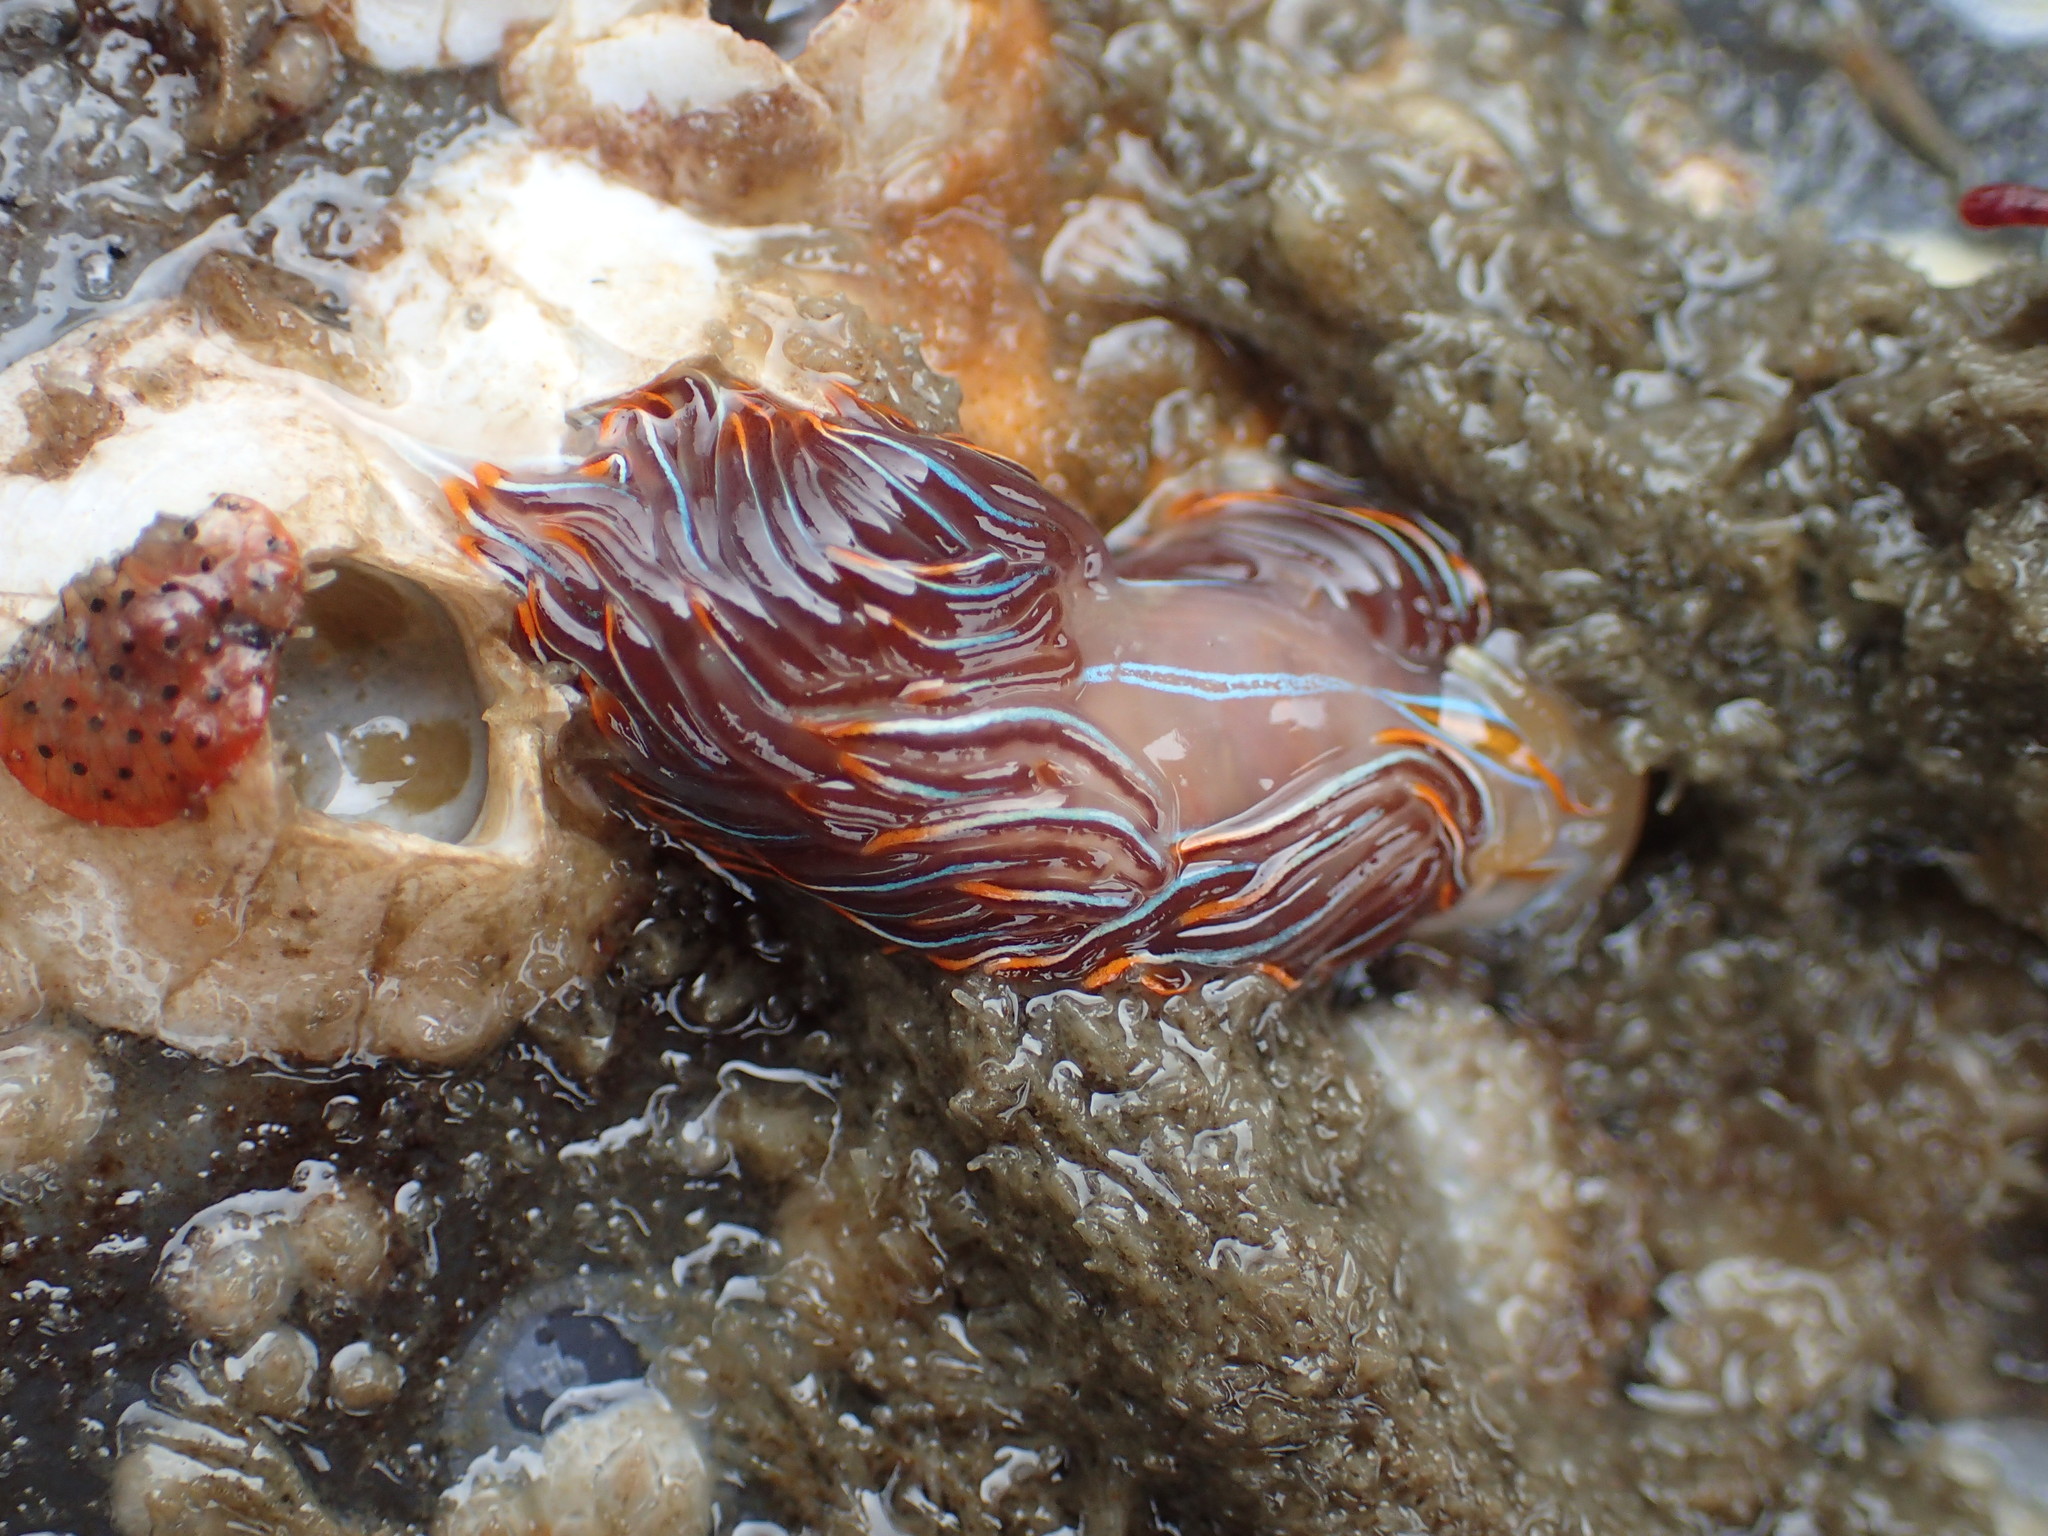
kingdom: Animalia
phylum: Mollusca
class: Gastropoda
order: Nudibranchia
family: Myrrhinidae
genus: Hermissenda
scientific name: Hermissenda crassicornis
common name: Hermissenda
